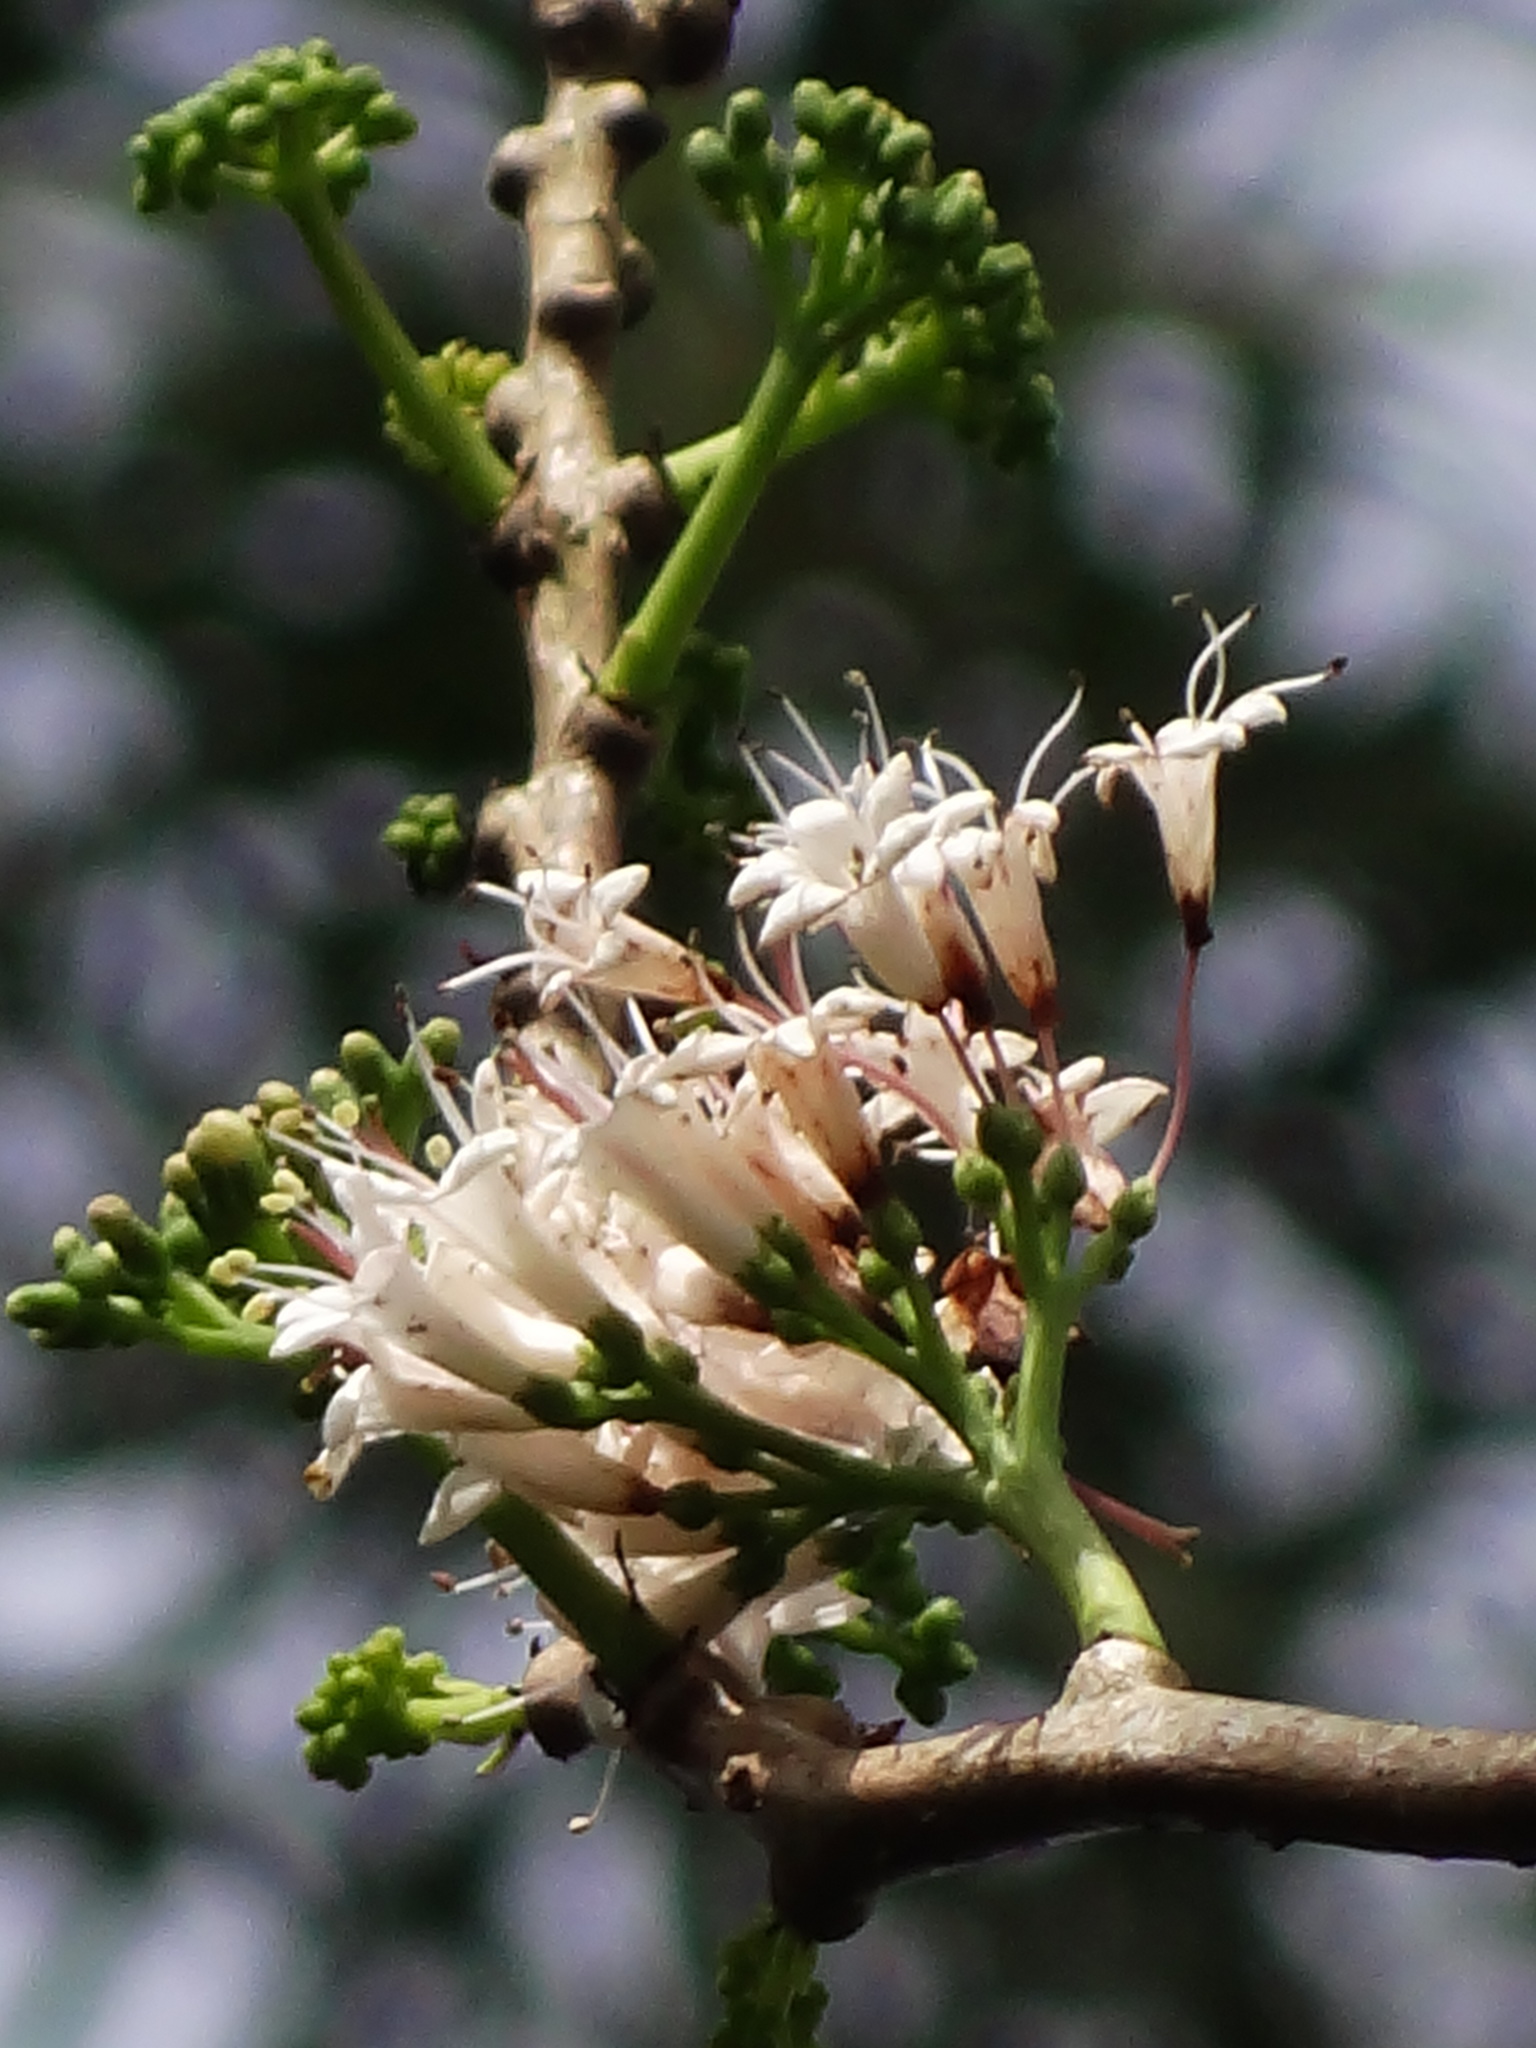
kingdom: Plantae
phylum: Tracheophyta
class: Magnoliopsida
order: Boraginales
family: Ehretiaceae
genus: Ehretia
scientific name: Ehretia longiflora
